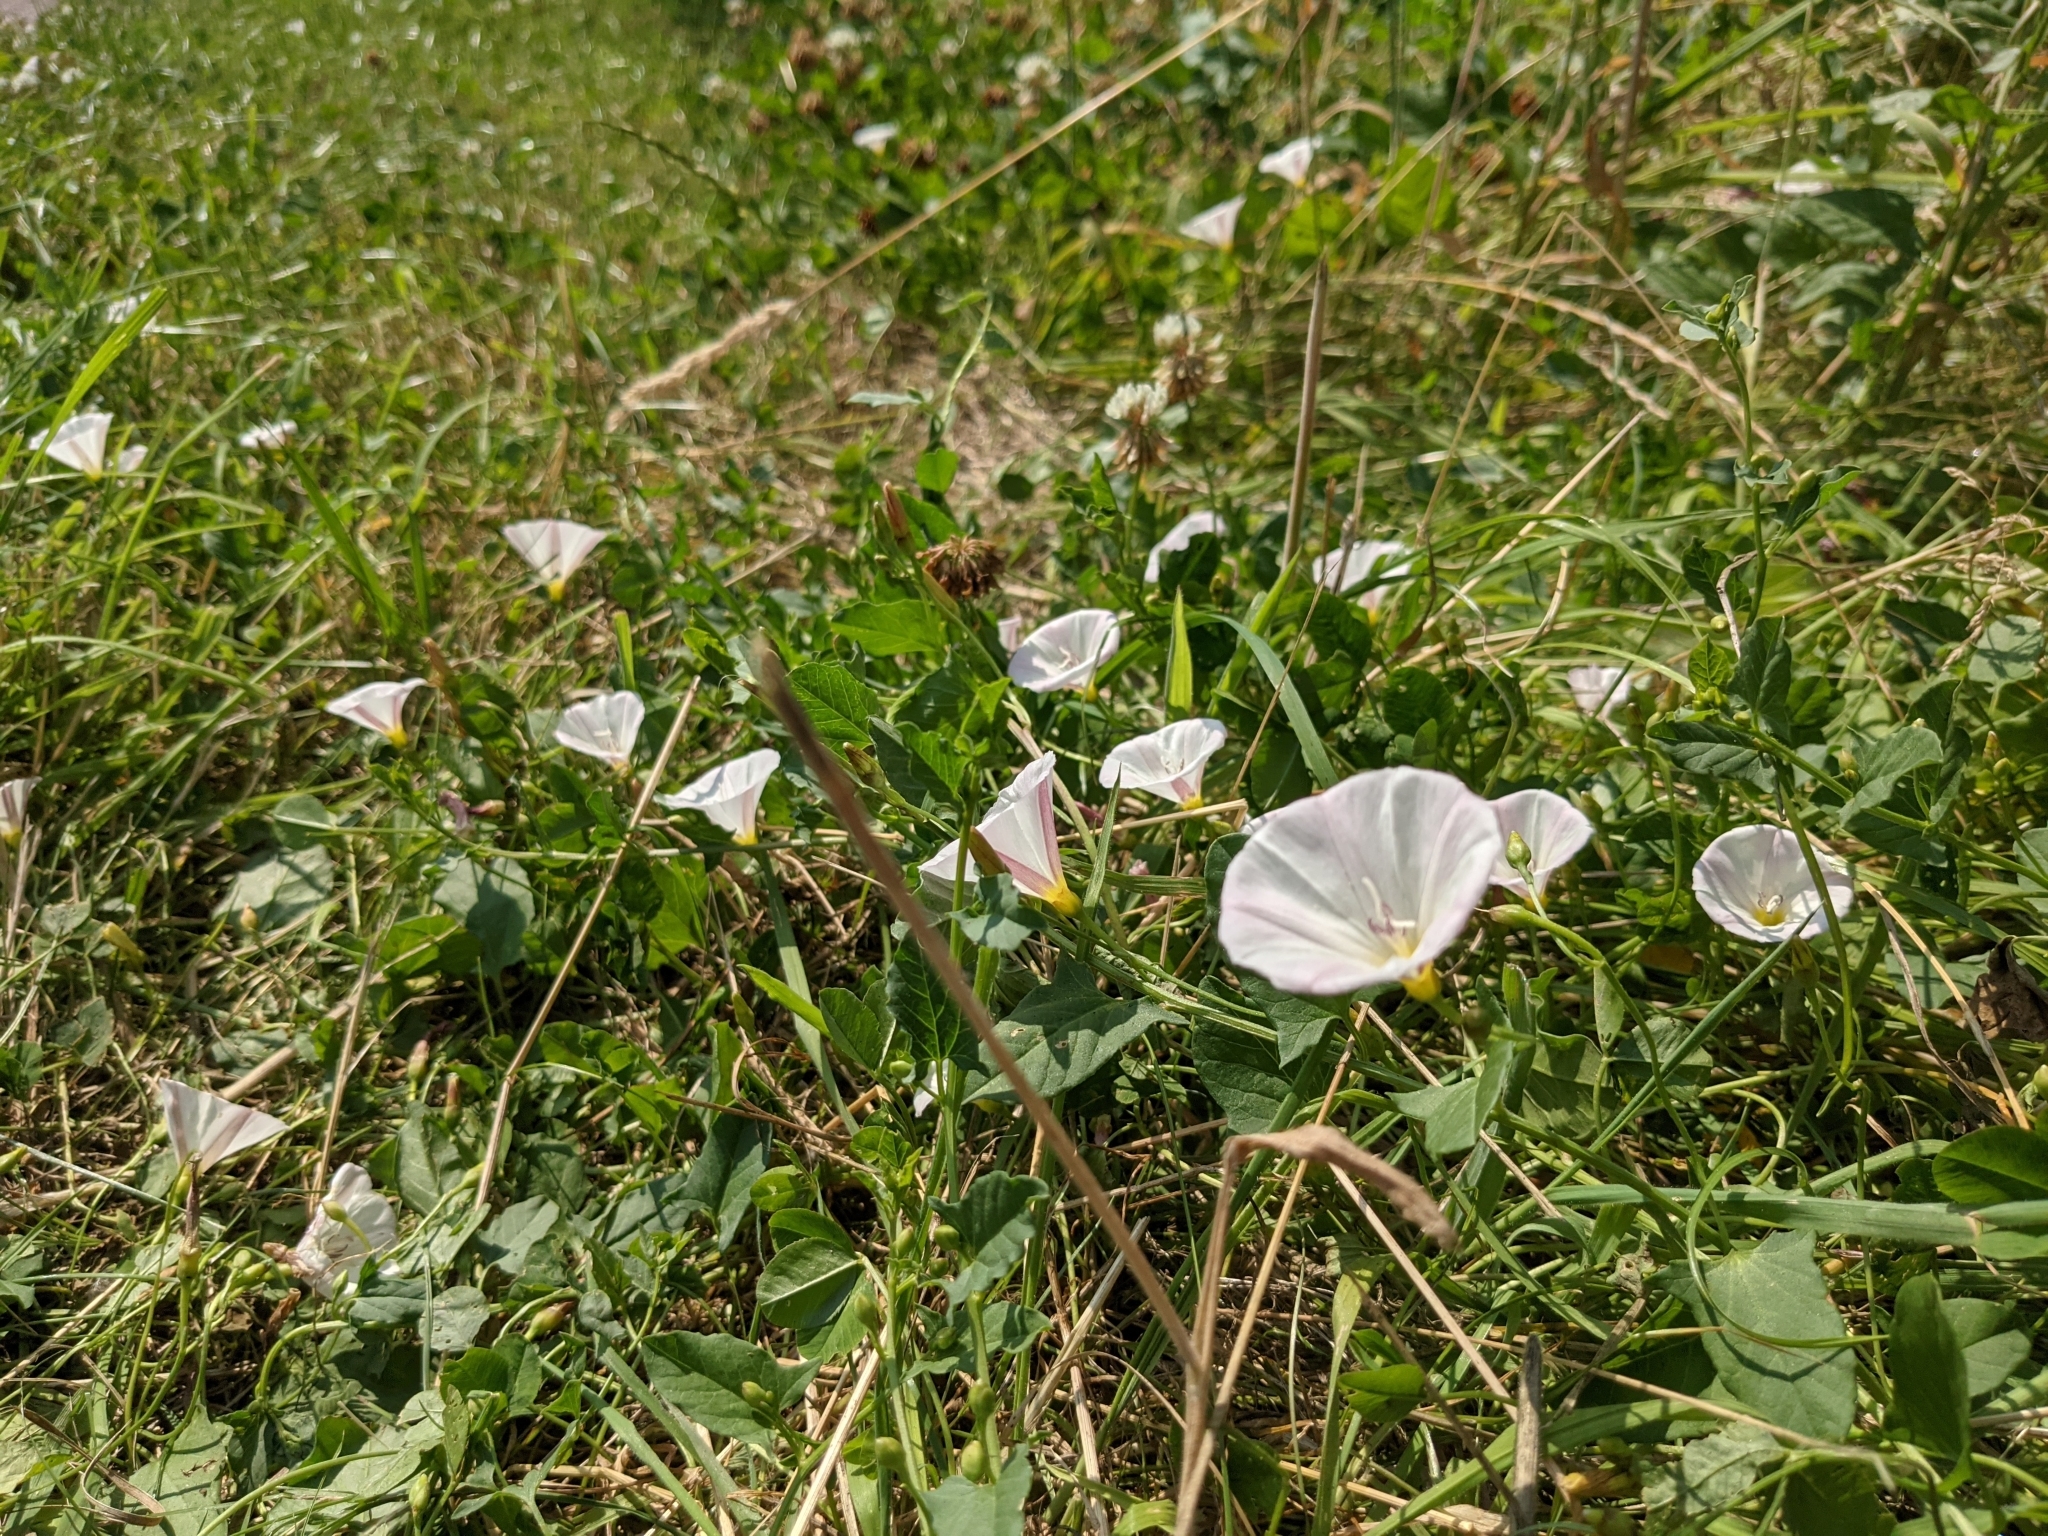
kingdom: Plantae
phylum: Tracheophyta
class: Magnoliopsida
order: Solanales
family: Convolvulaceae
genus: Convolvulus
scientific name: Convolvulus arvensis
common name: Field bindweed
